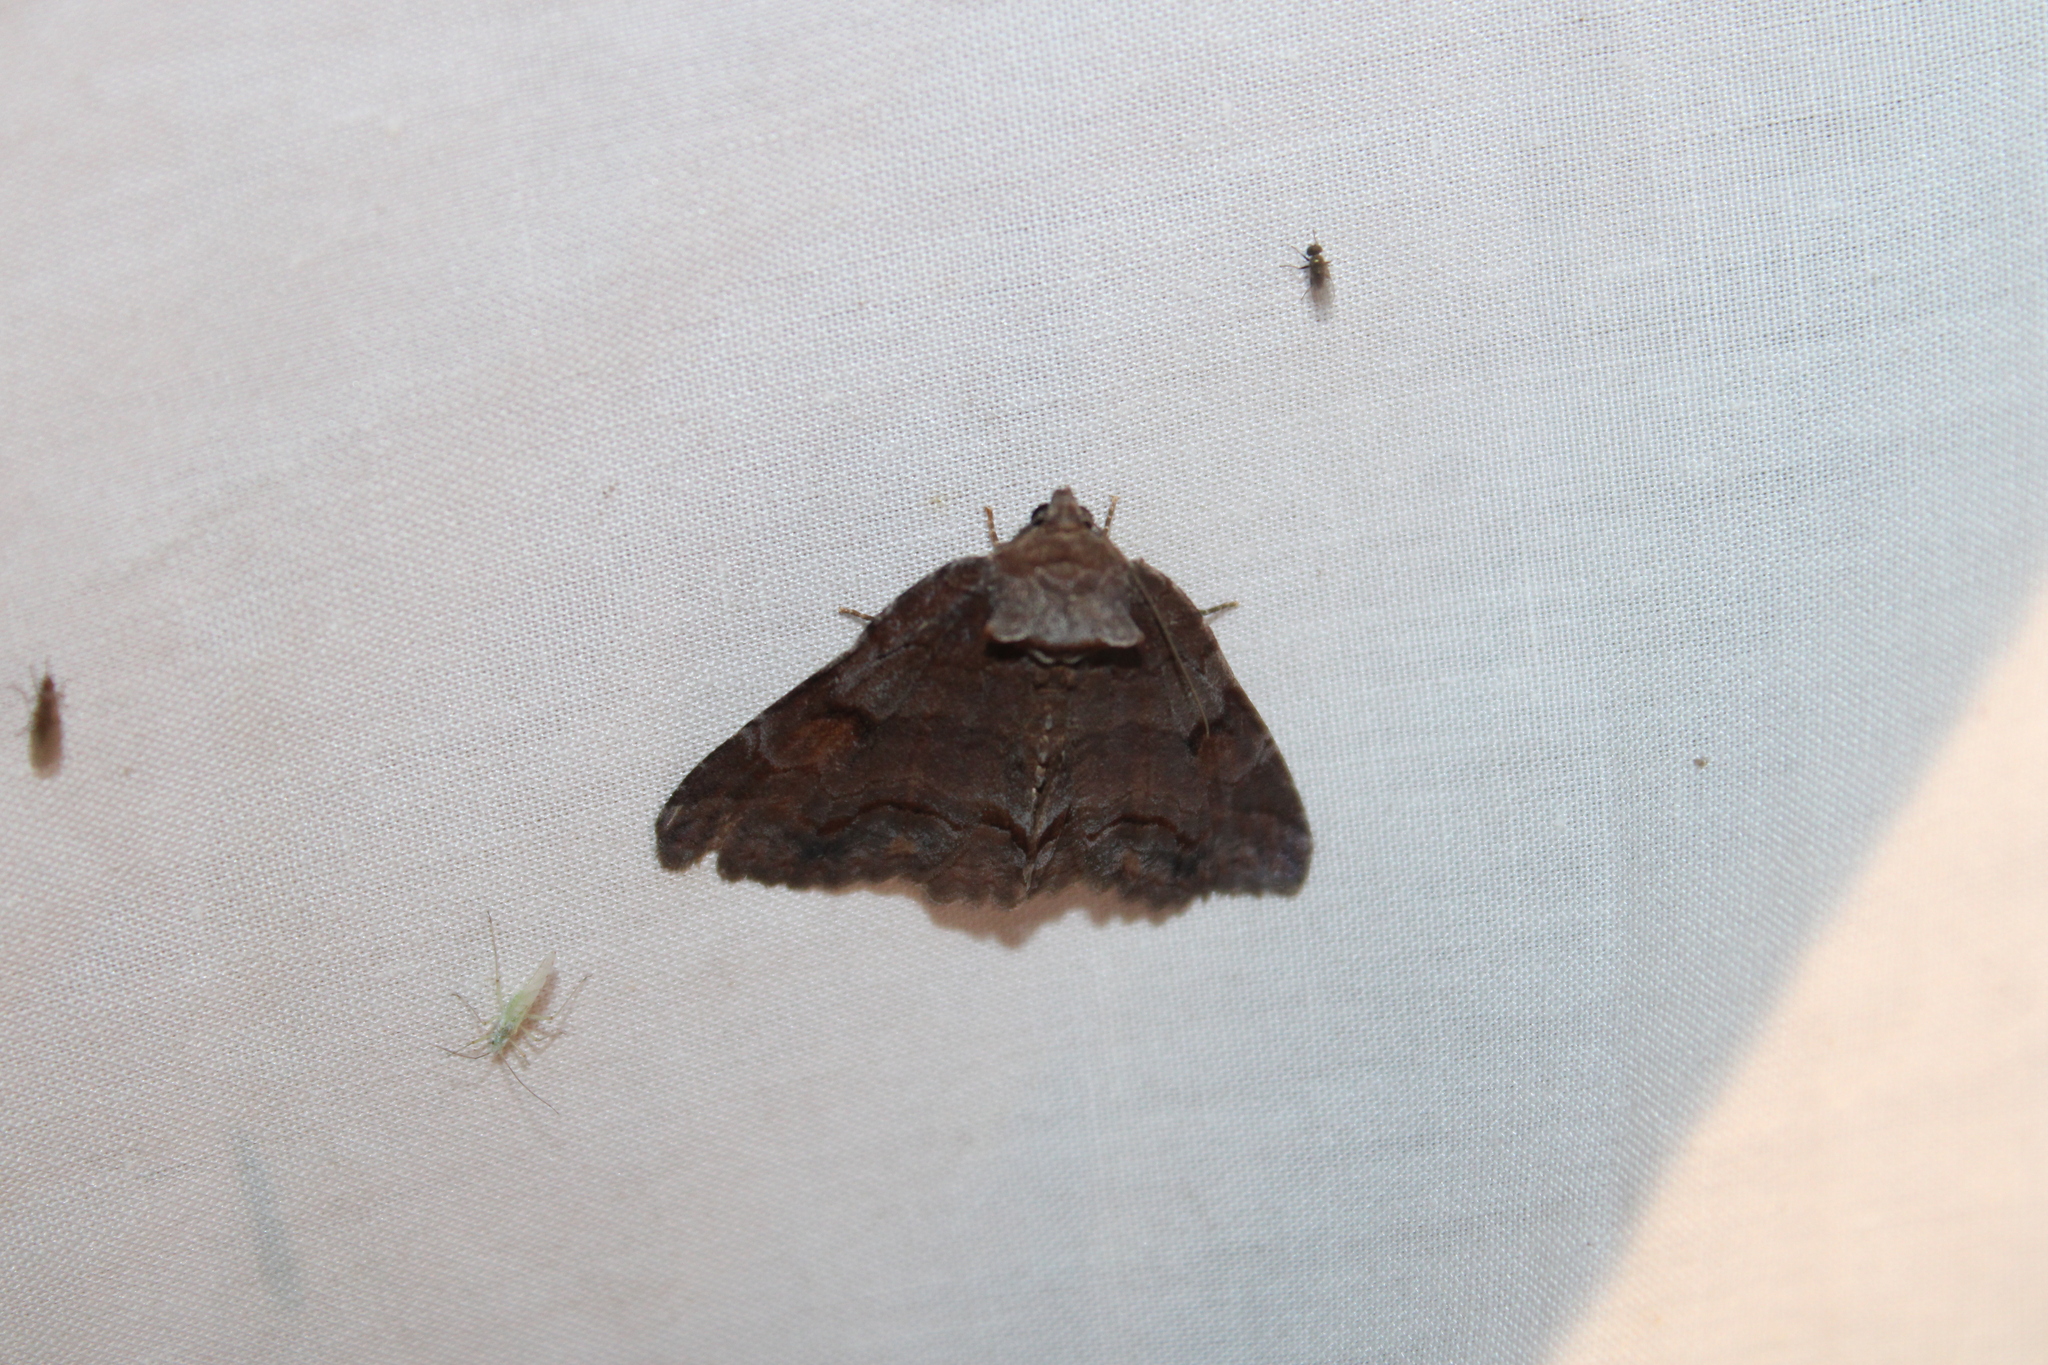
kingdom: Animalia
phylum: Arthropoda
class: Insecta
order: Lepidoptera
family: Erebidae
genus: Zale
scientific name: Zale metatoides
